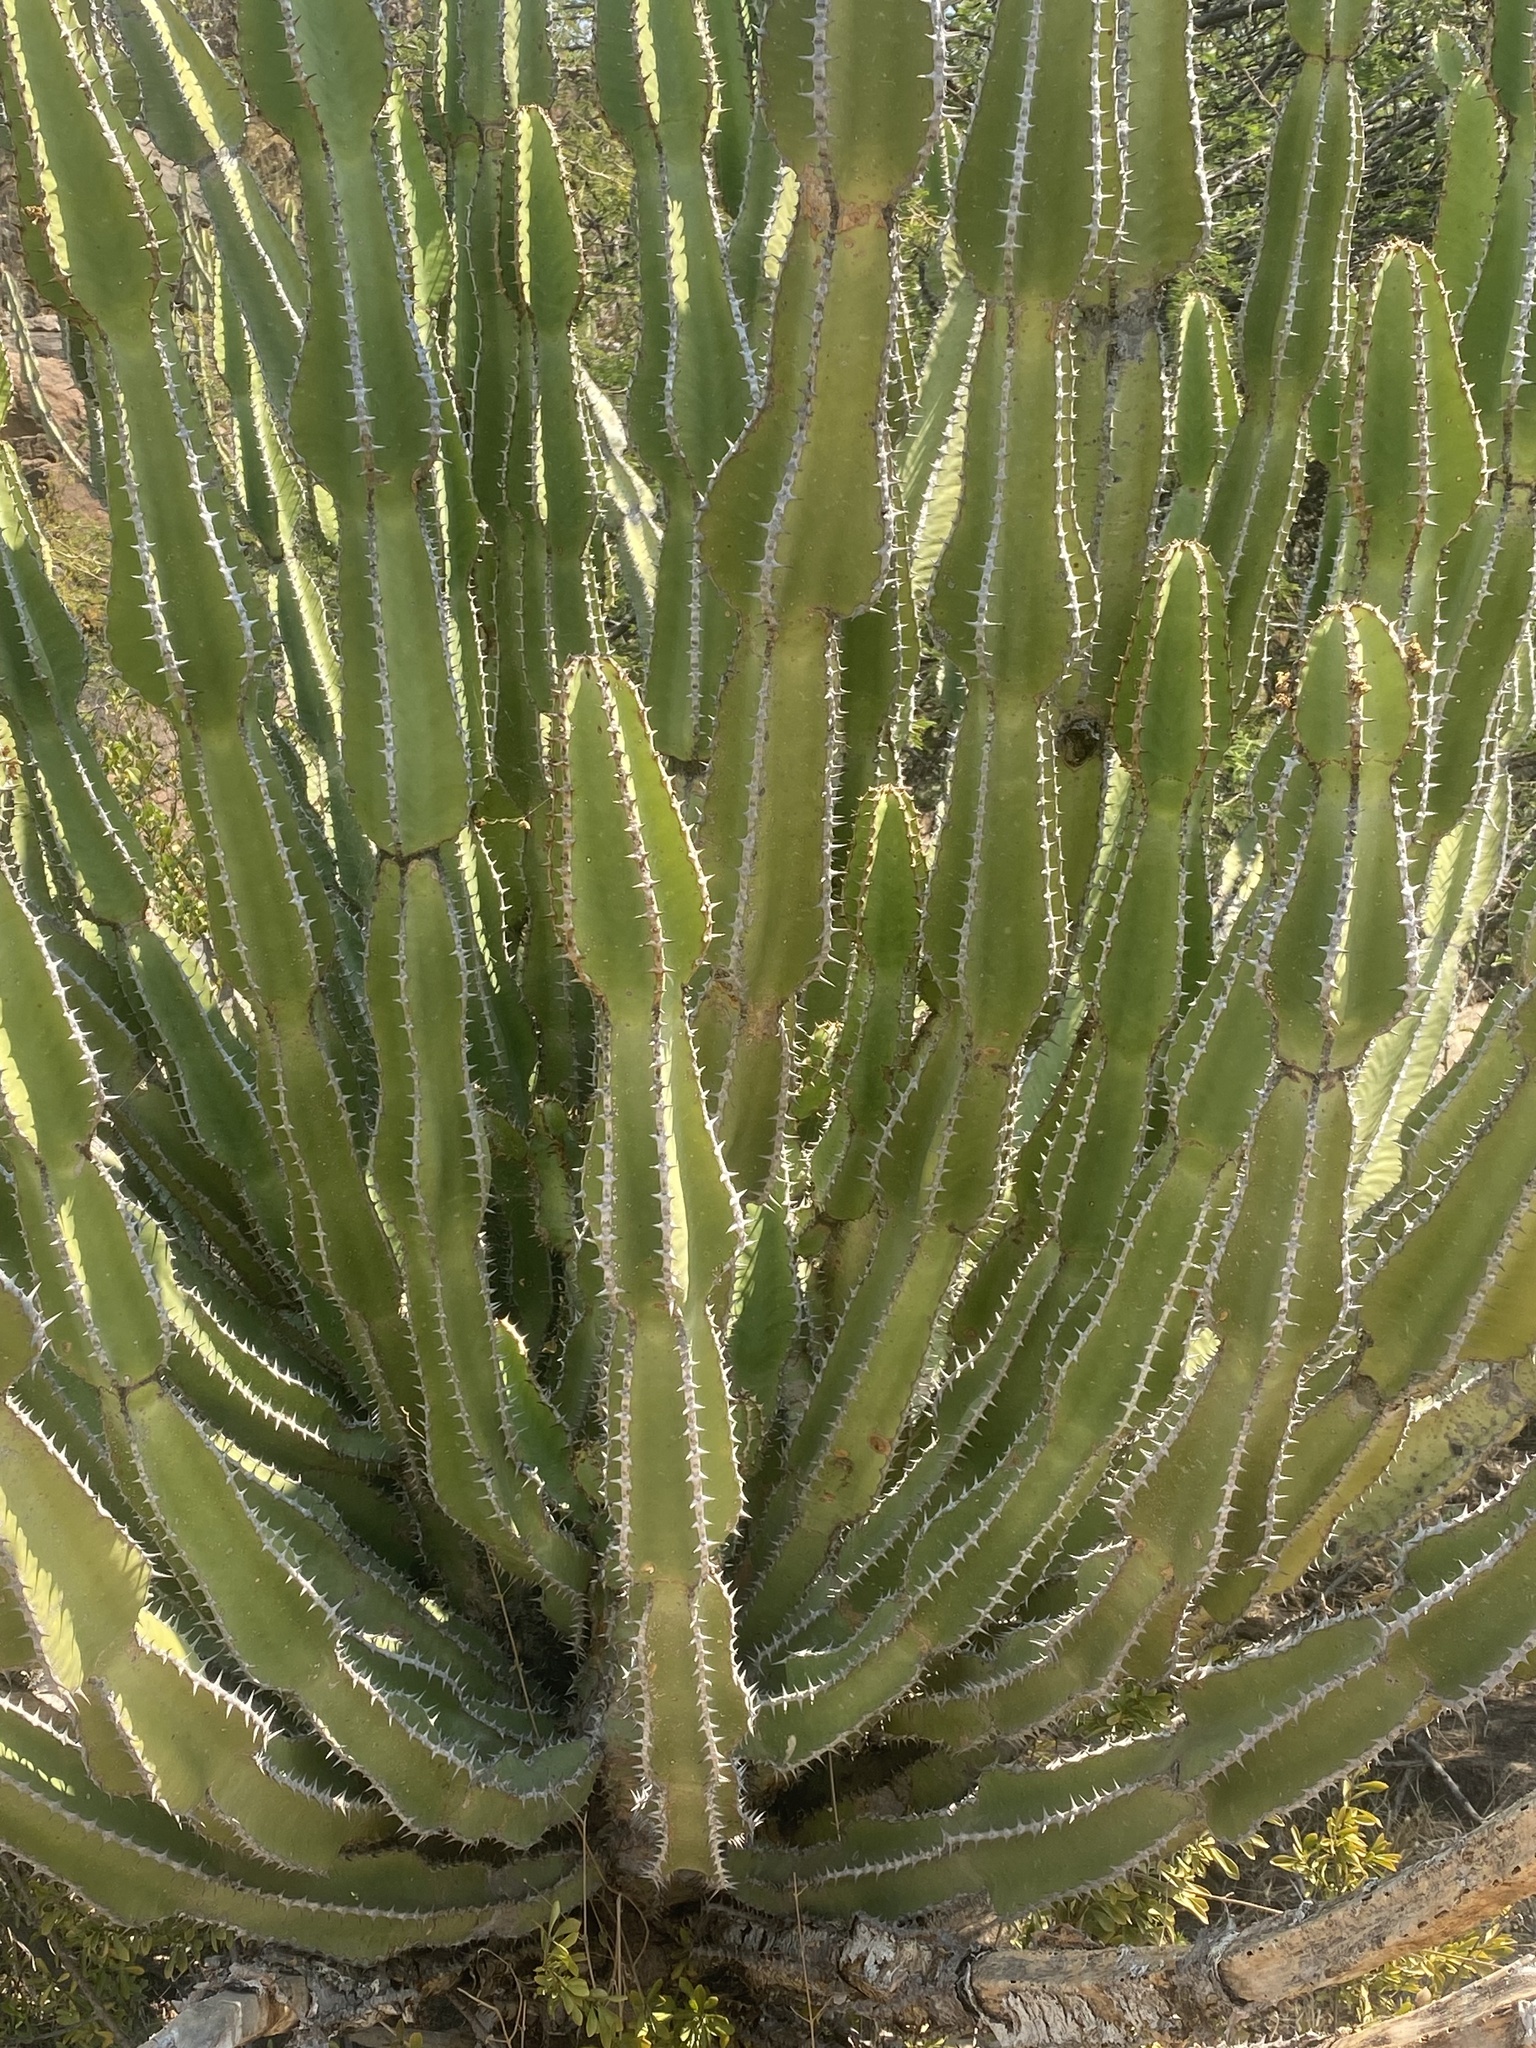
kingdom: Plantae
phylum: Tracheophyta
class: Magnoliopsida
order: Malpighiales
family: Euphorbiaceae
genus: Euphorbia
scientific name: Euphorbia cooperi
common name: Candelabra tree
